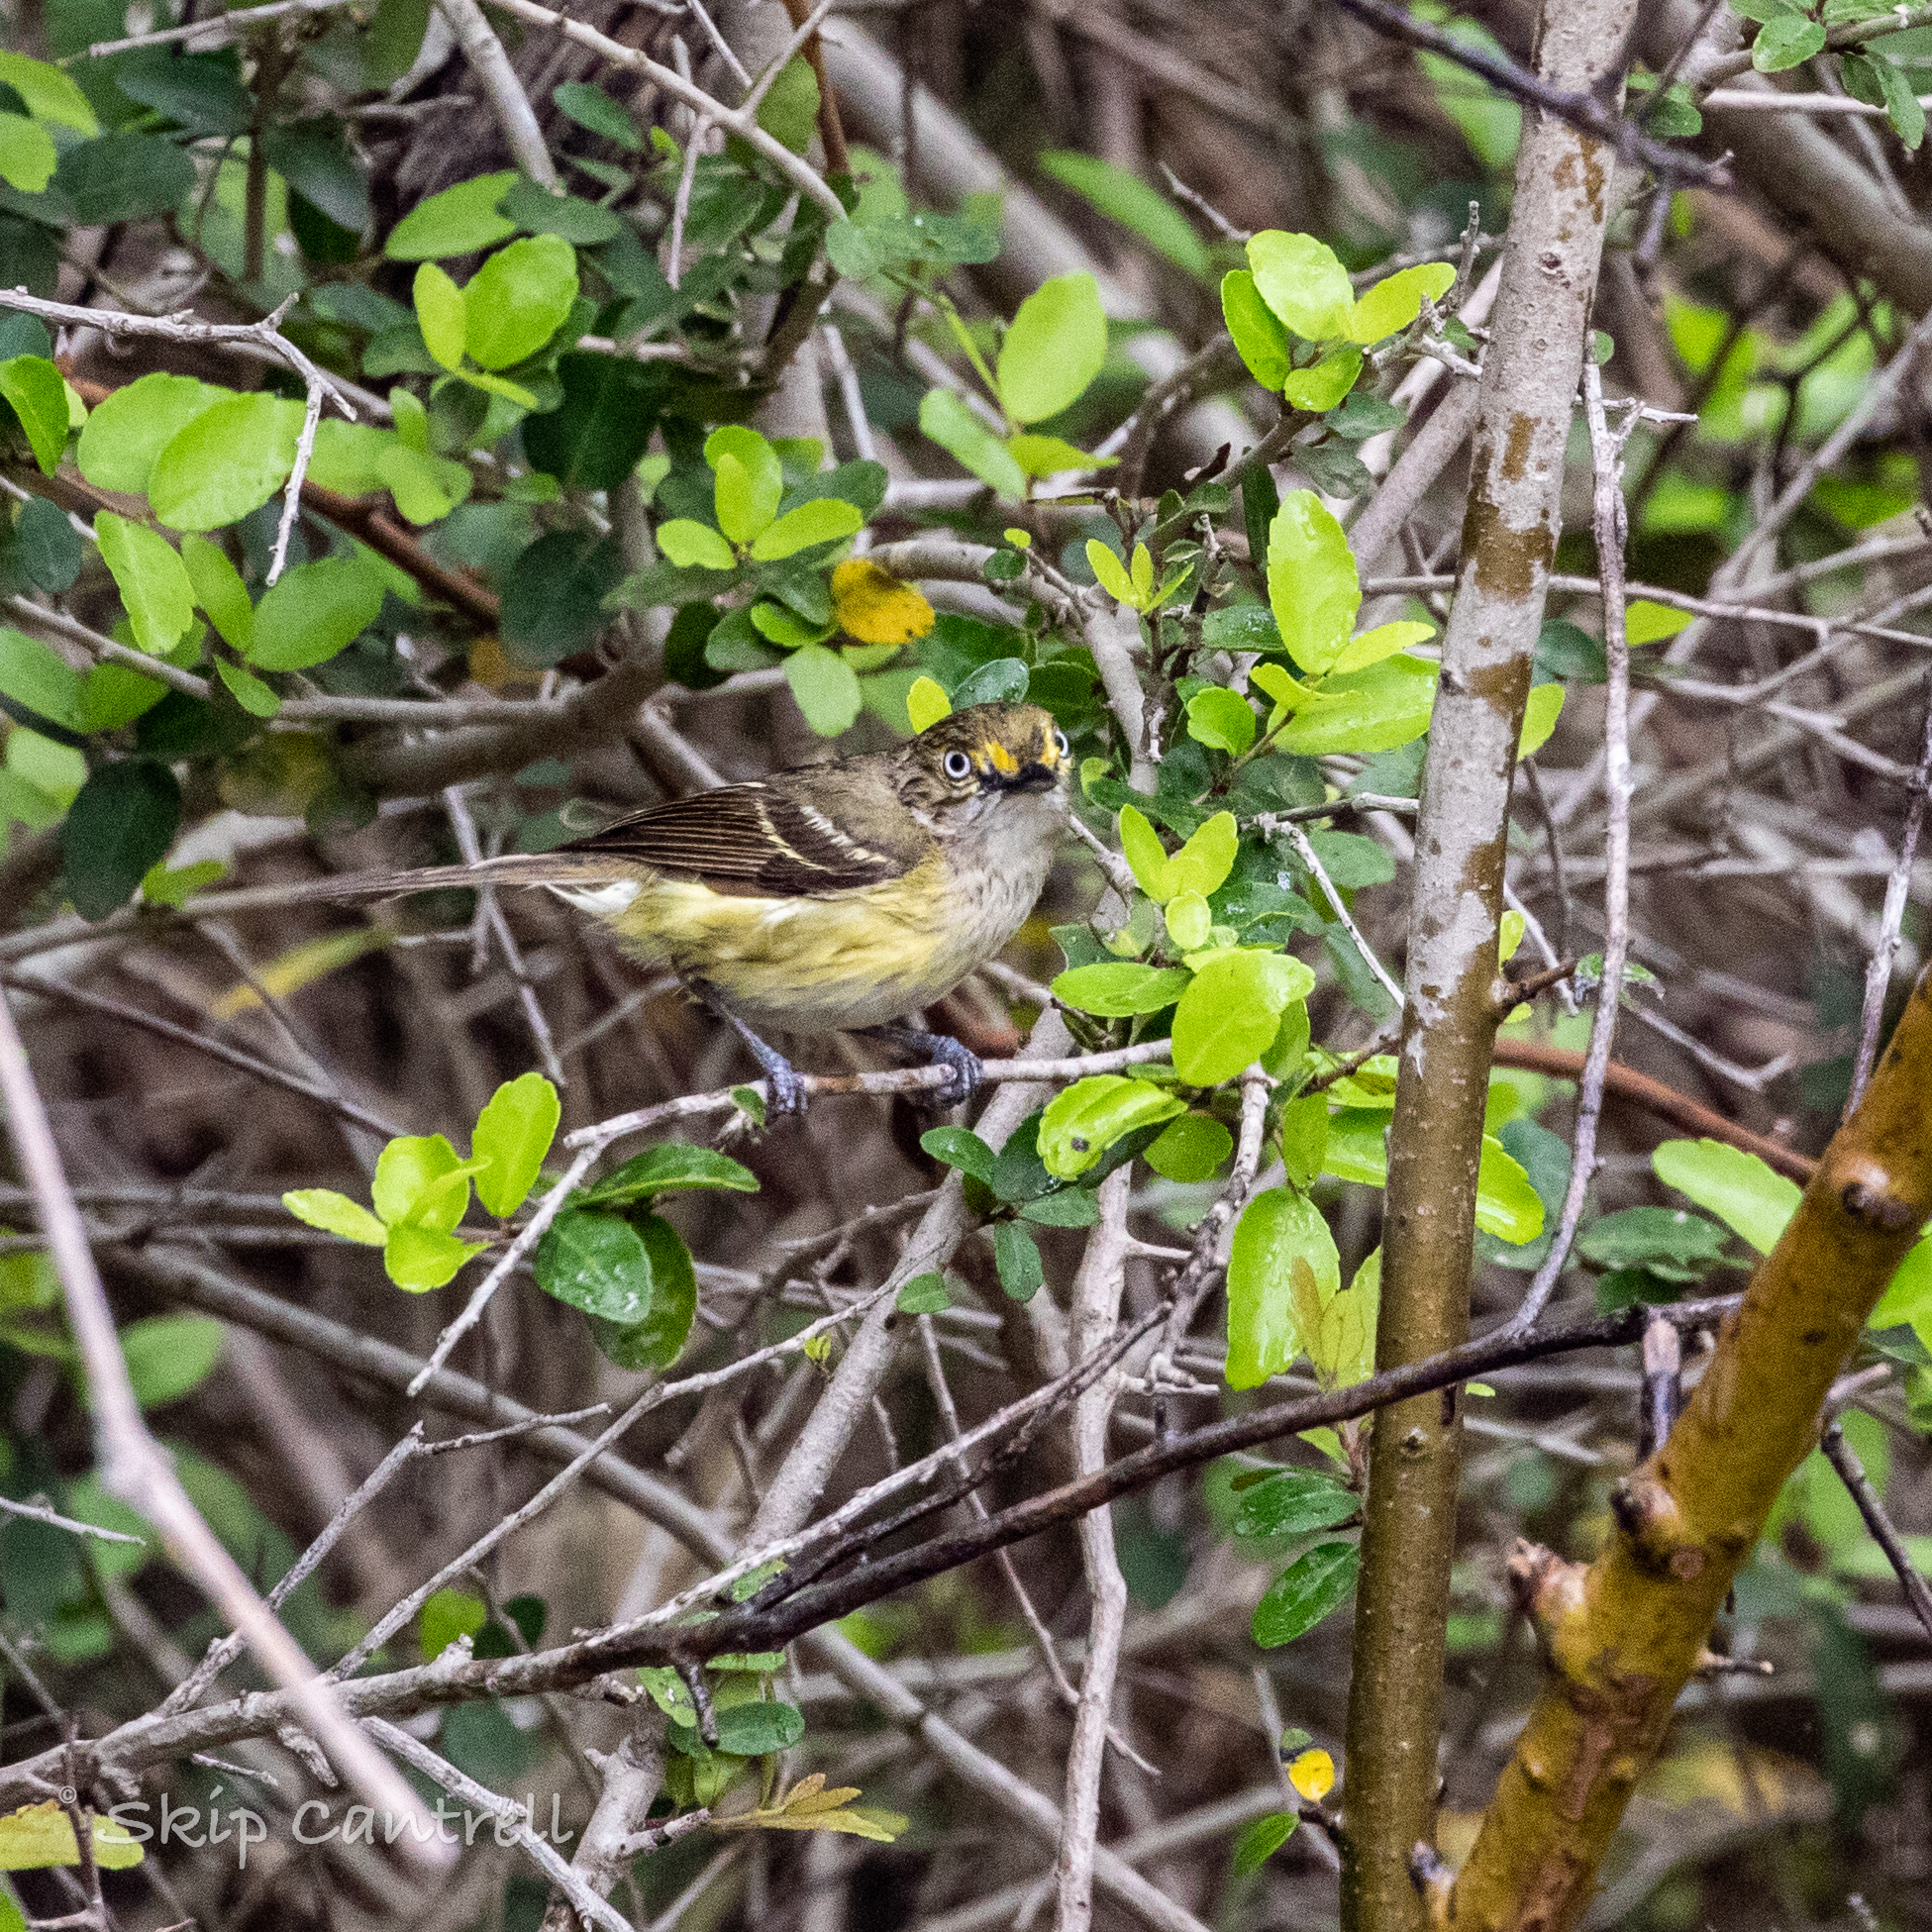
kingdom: Animalia
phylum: Chordata
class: Aves
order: Passeriformes
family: Vireonidae
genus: Vireo
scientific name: Vireo griseus
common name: White-eyed vireo
